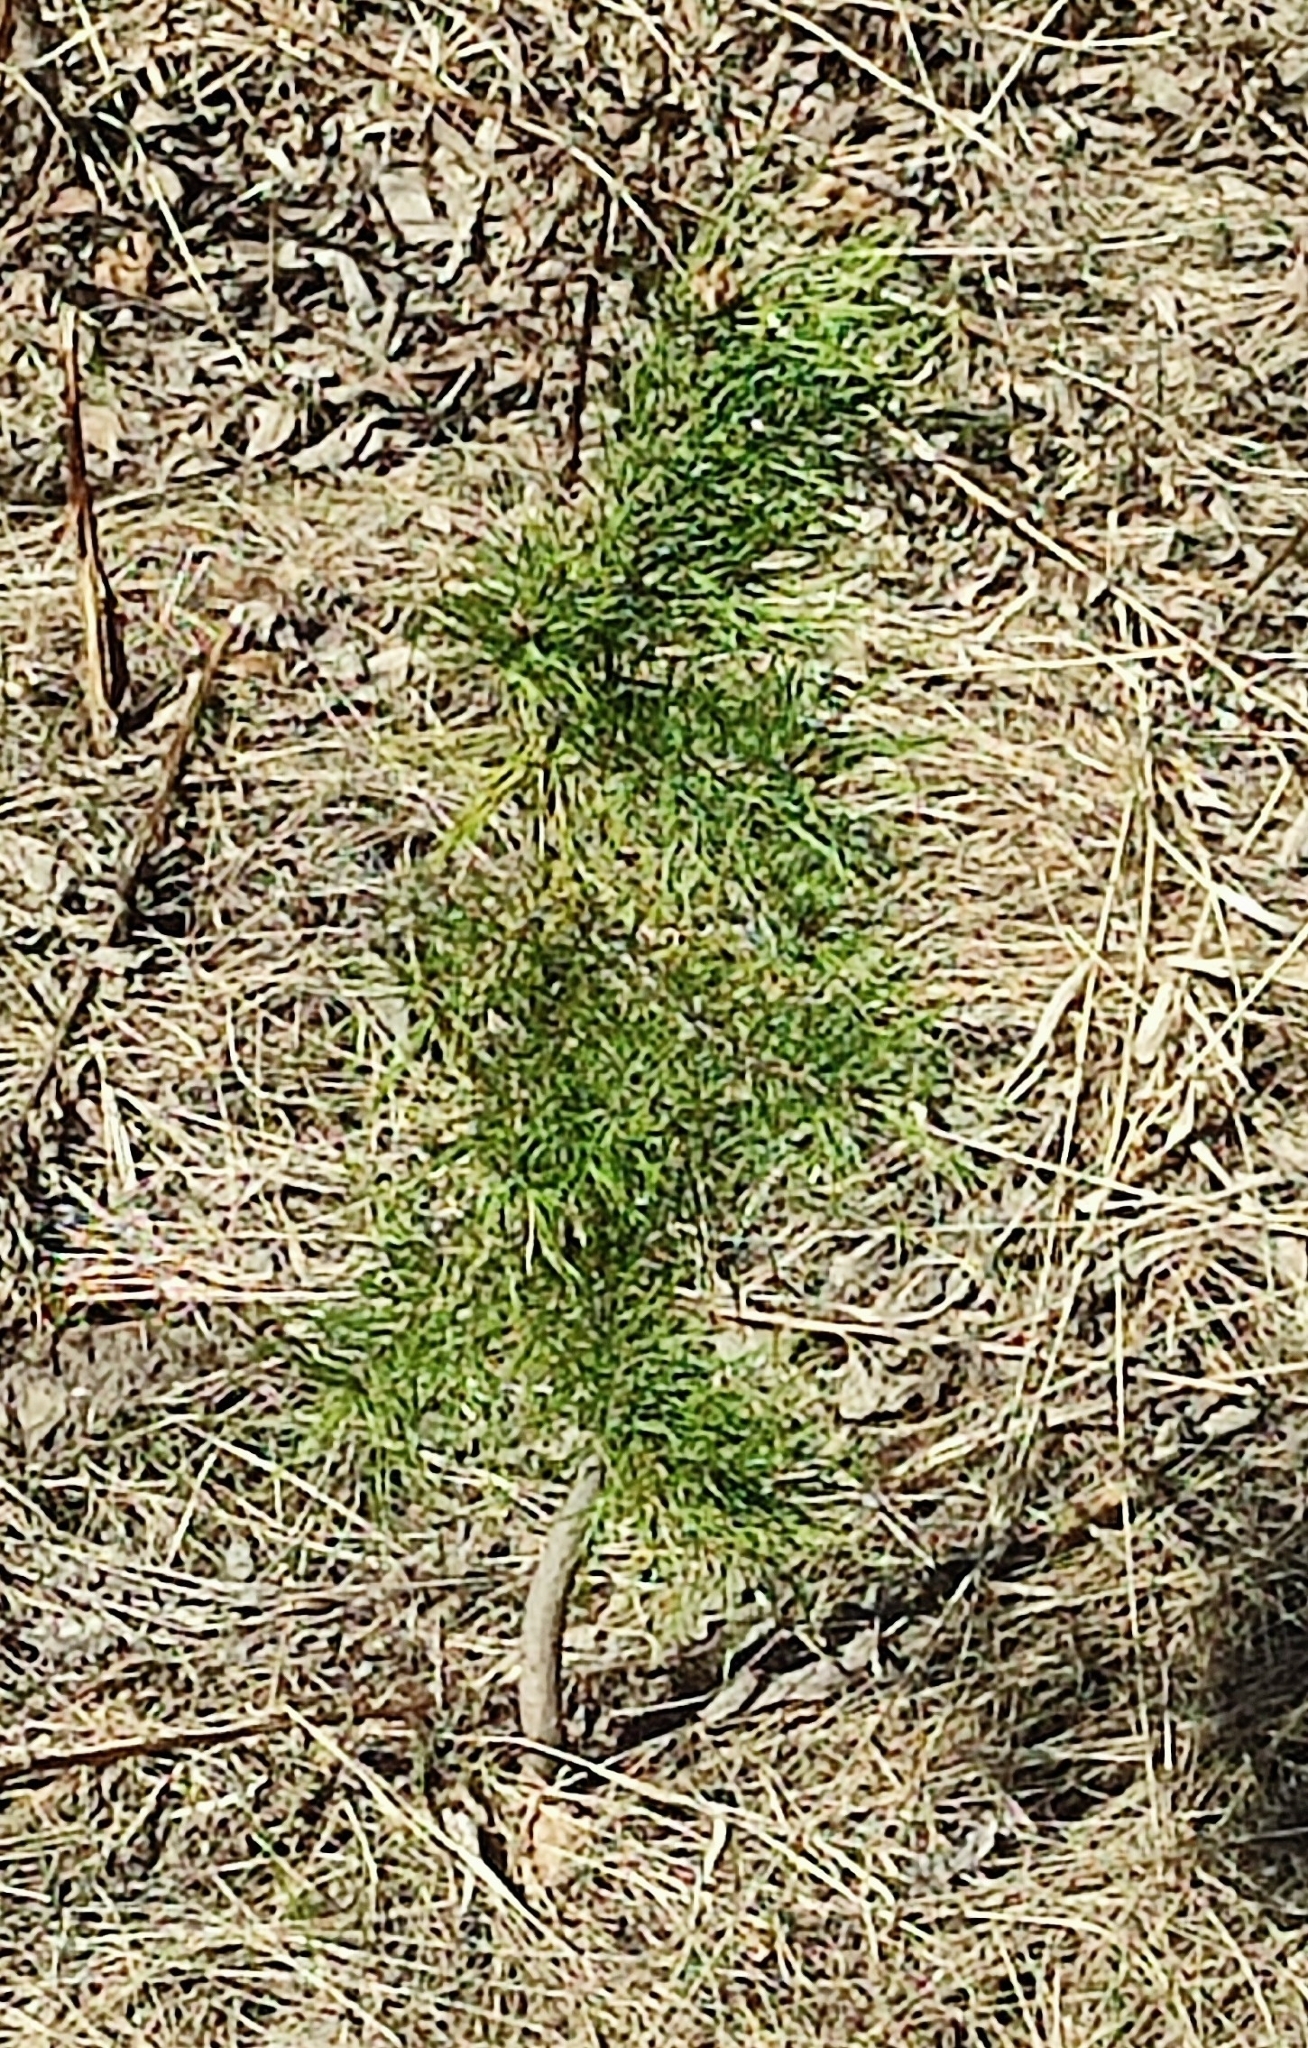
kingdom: Plantae
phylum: Tracheophyta
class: Pinopsida
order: Pinales
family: Pinaceae
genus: Pinus
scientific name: Pinus sylvestris
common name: Scots pine
